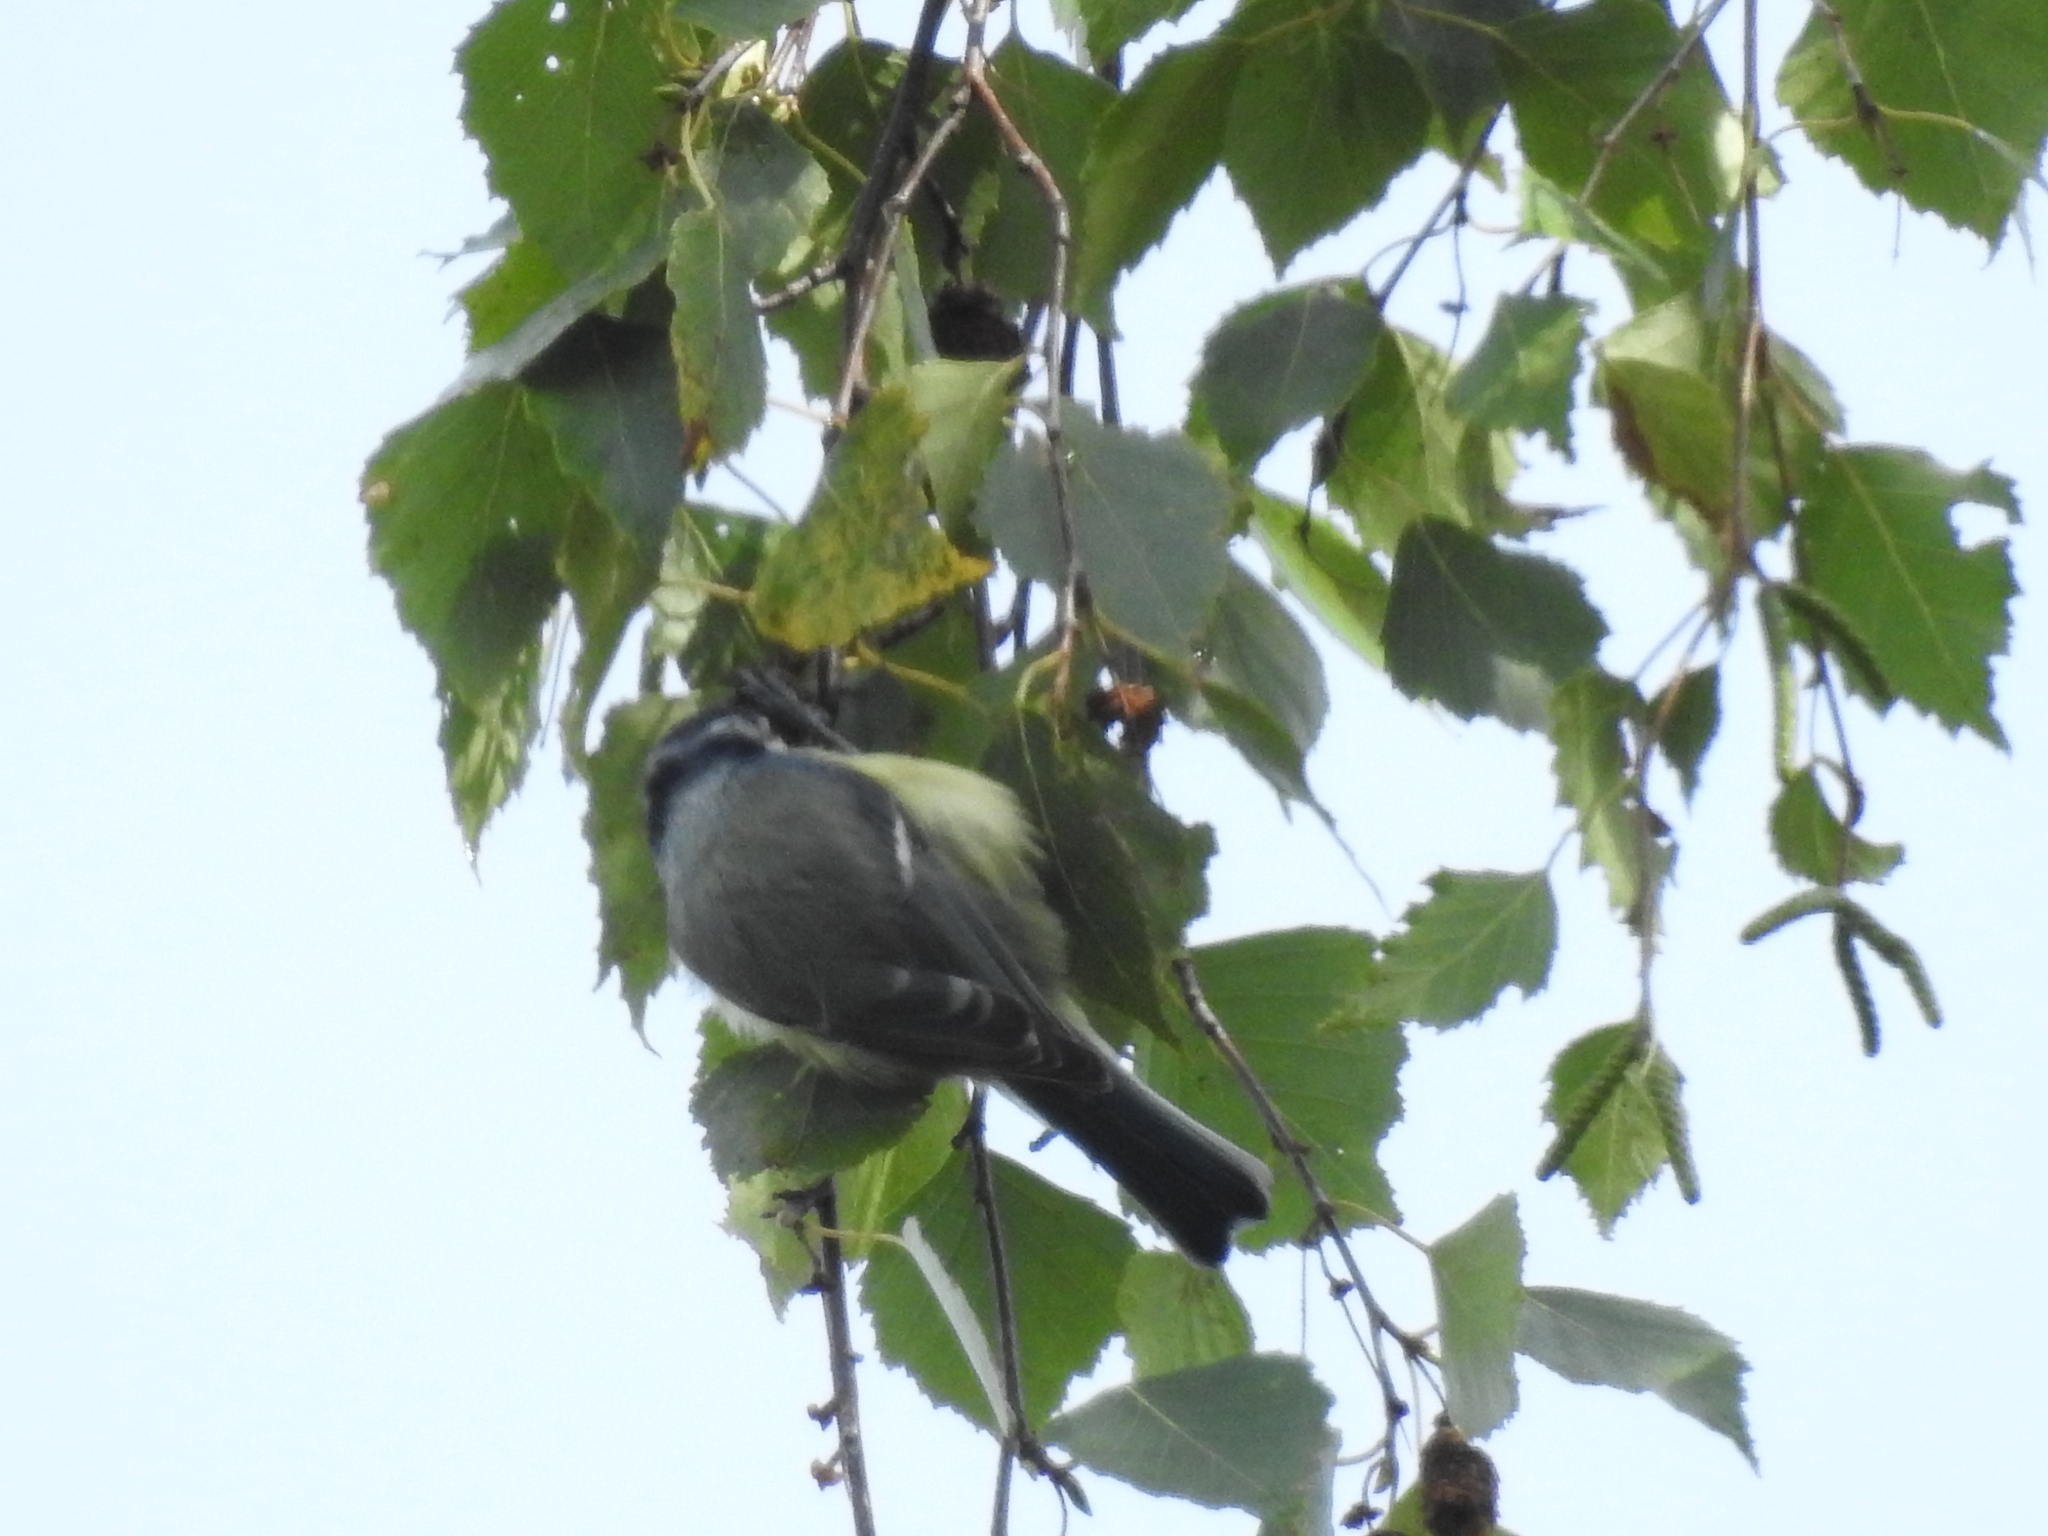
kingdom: Animalia
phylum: Chordata
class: Aves
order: Passeriformes
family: Paridae
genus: Cyanistes
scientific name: Cyanistes caeruleus
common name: Eurasian blue tit
